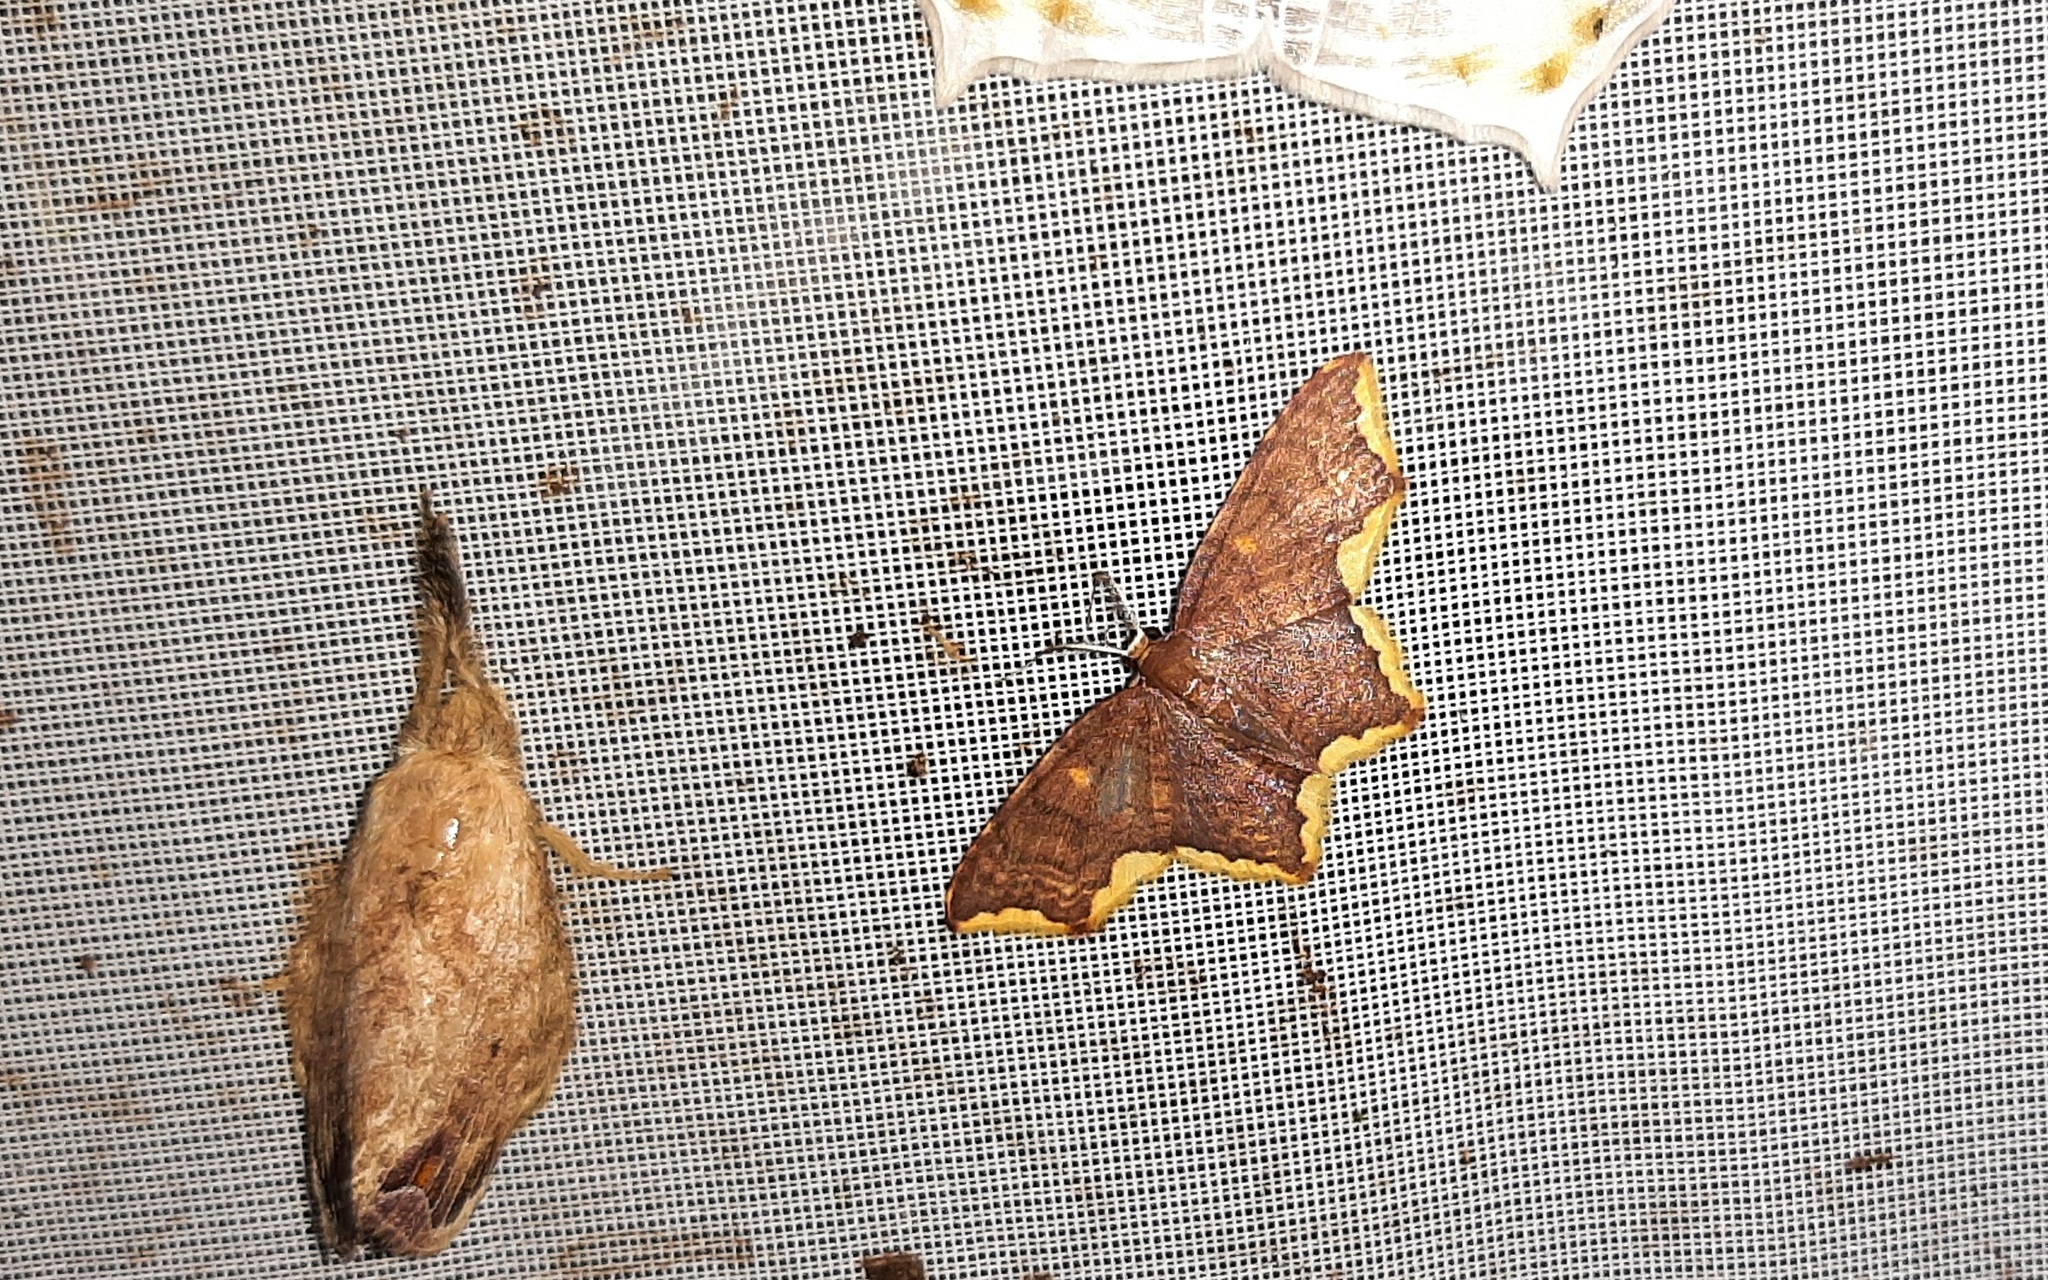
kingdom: Animalia
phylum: Arthropoda
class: Insecta
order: Lepidoptera
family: Geometridae
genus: Eois
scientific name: Eois paraviolascens
